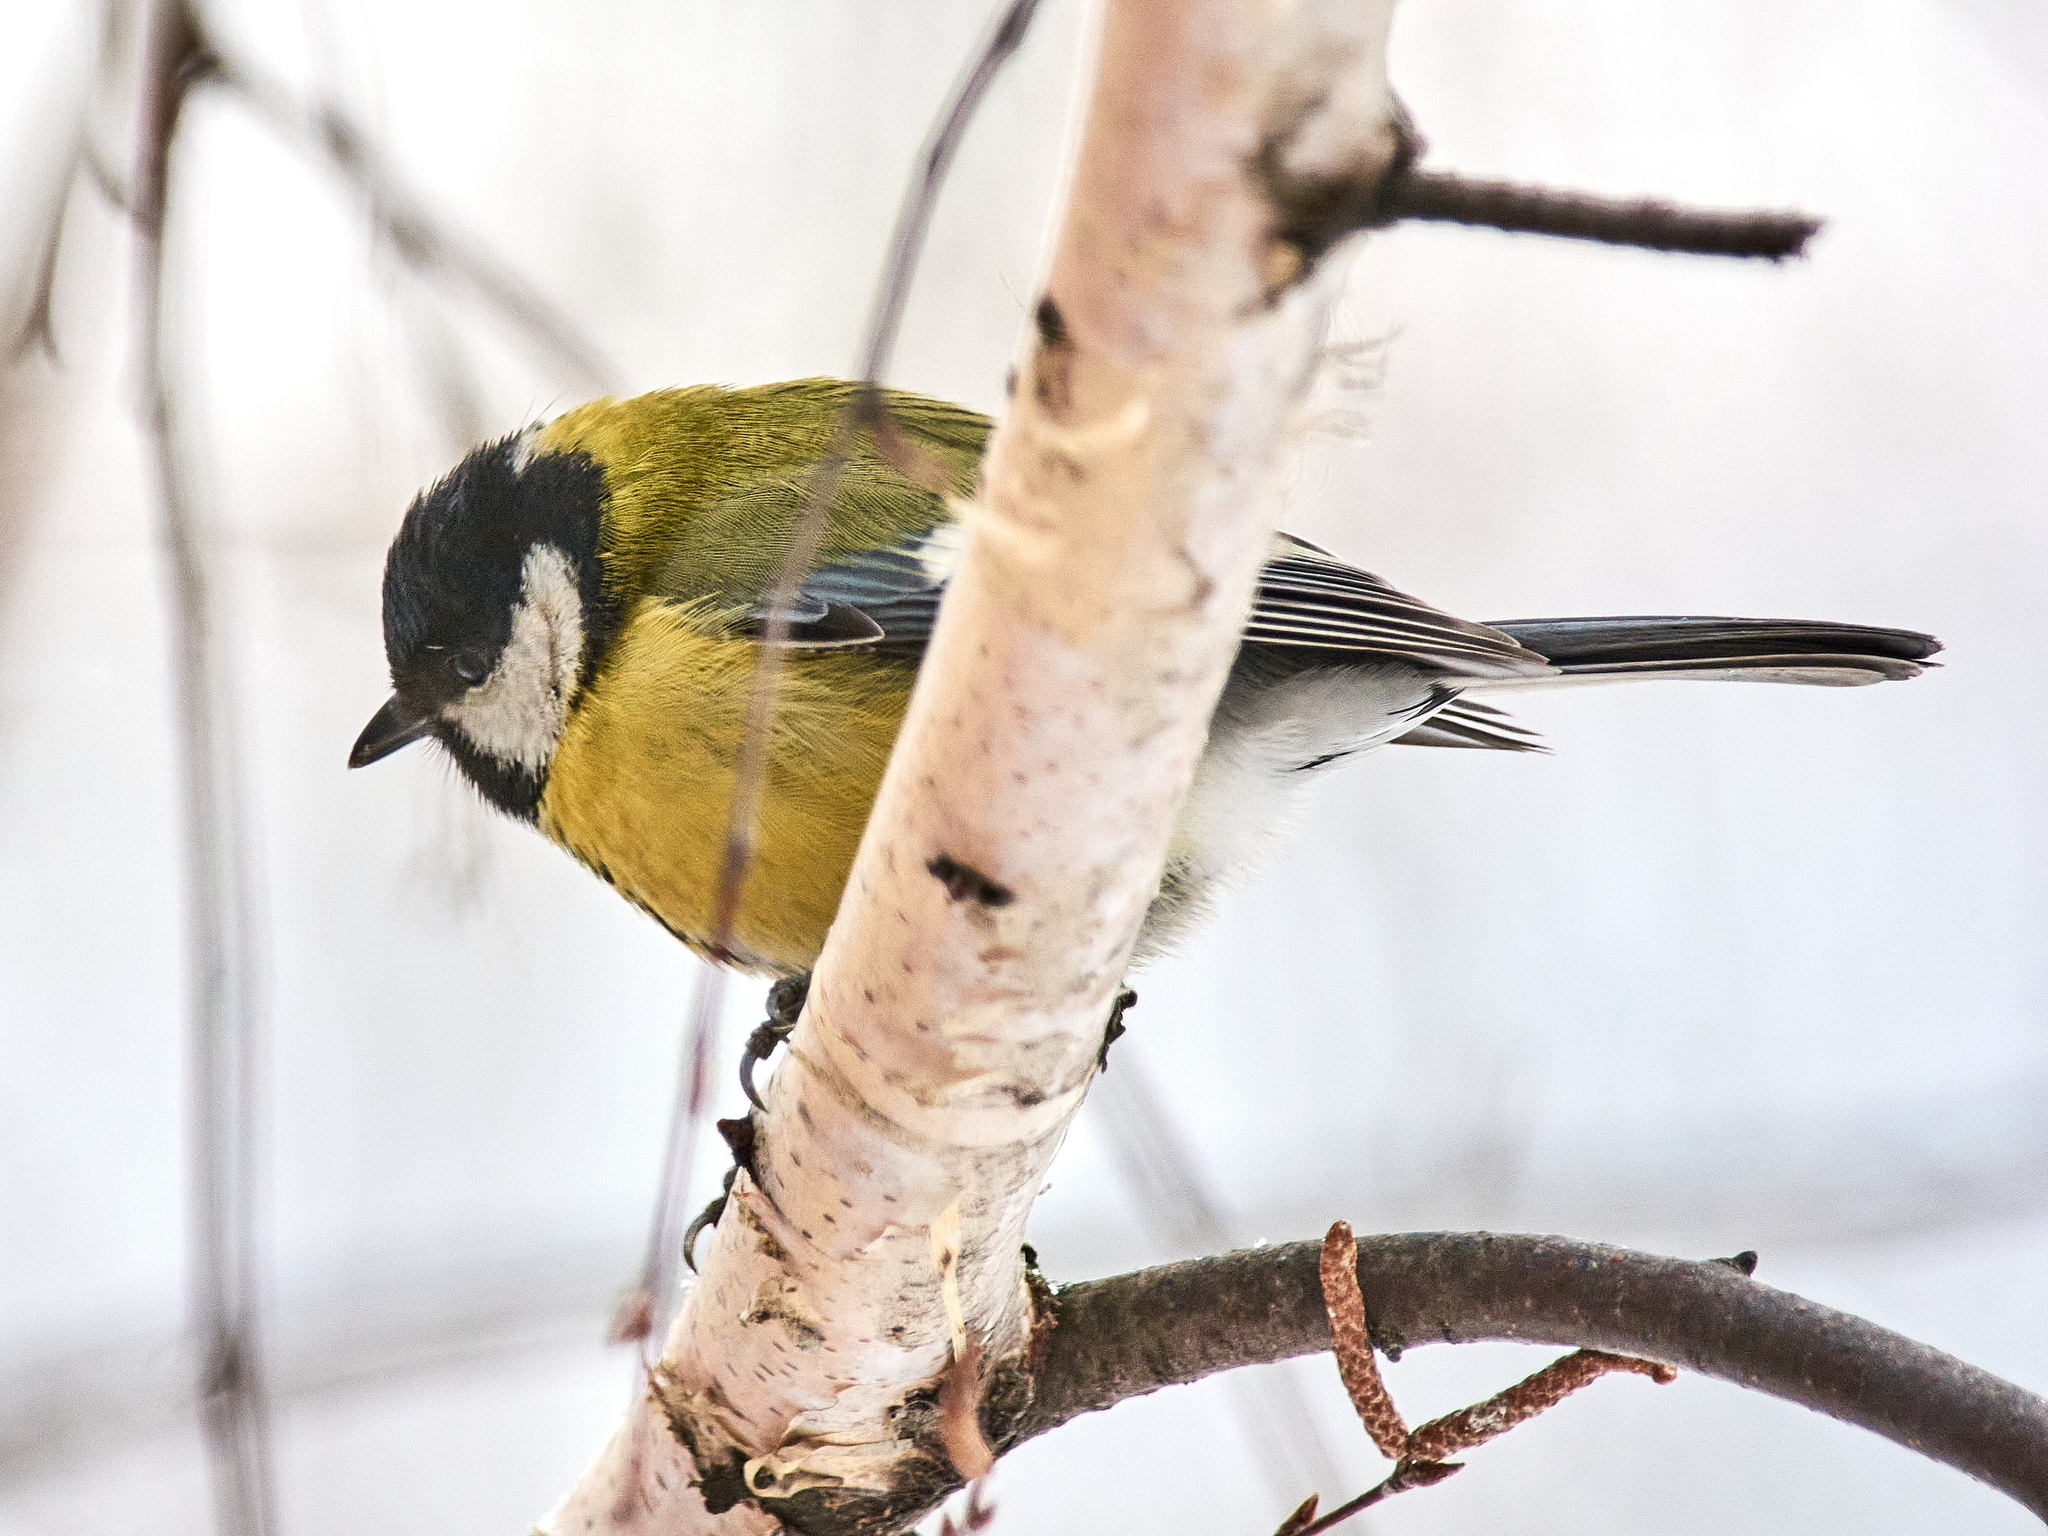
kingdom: Animalia
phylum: Chordata
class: Aves
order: Passeriformes
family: Paridae
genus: Parus
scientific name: Parus major
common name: Great tit
